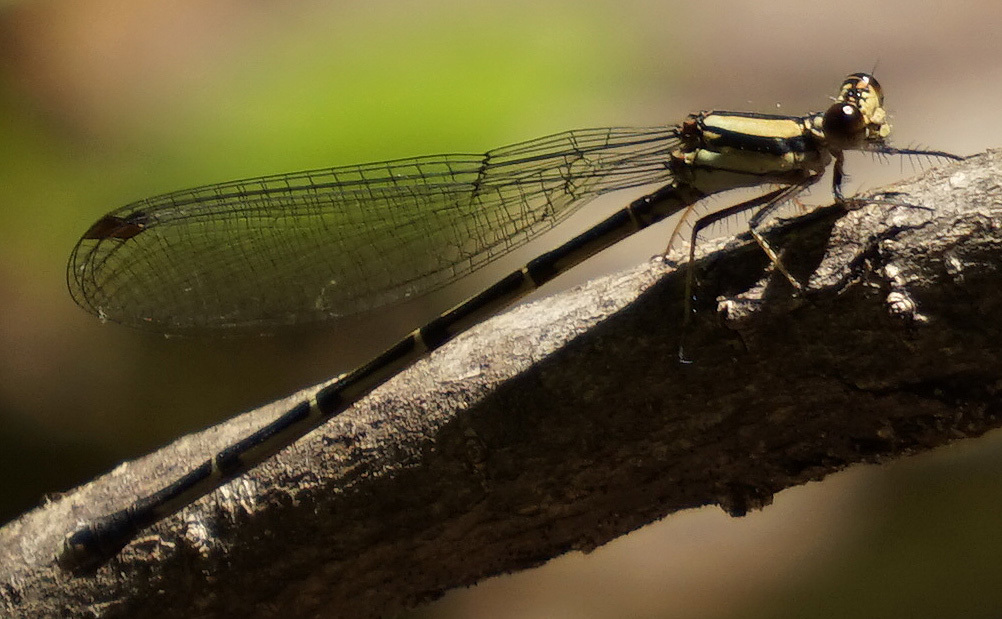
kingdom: Animalia
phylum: Arthropoda
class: Insecta
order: Odonata
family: Coenagrionidae
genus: Argia
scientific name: Argia tibialis
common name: Blue-tipped dancer
